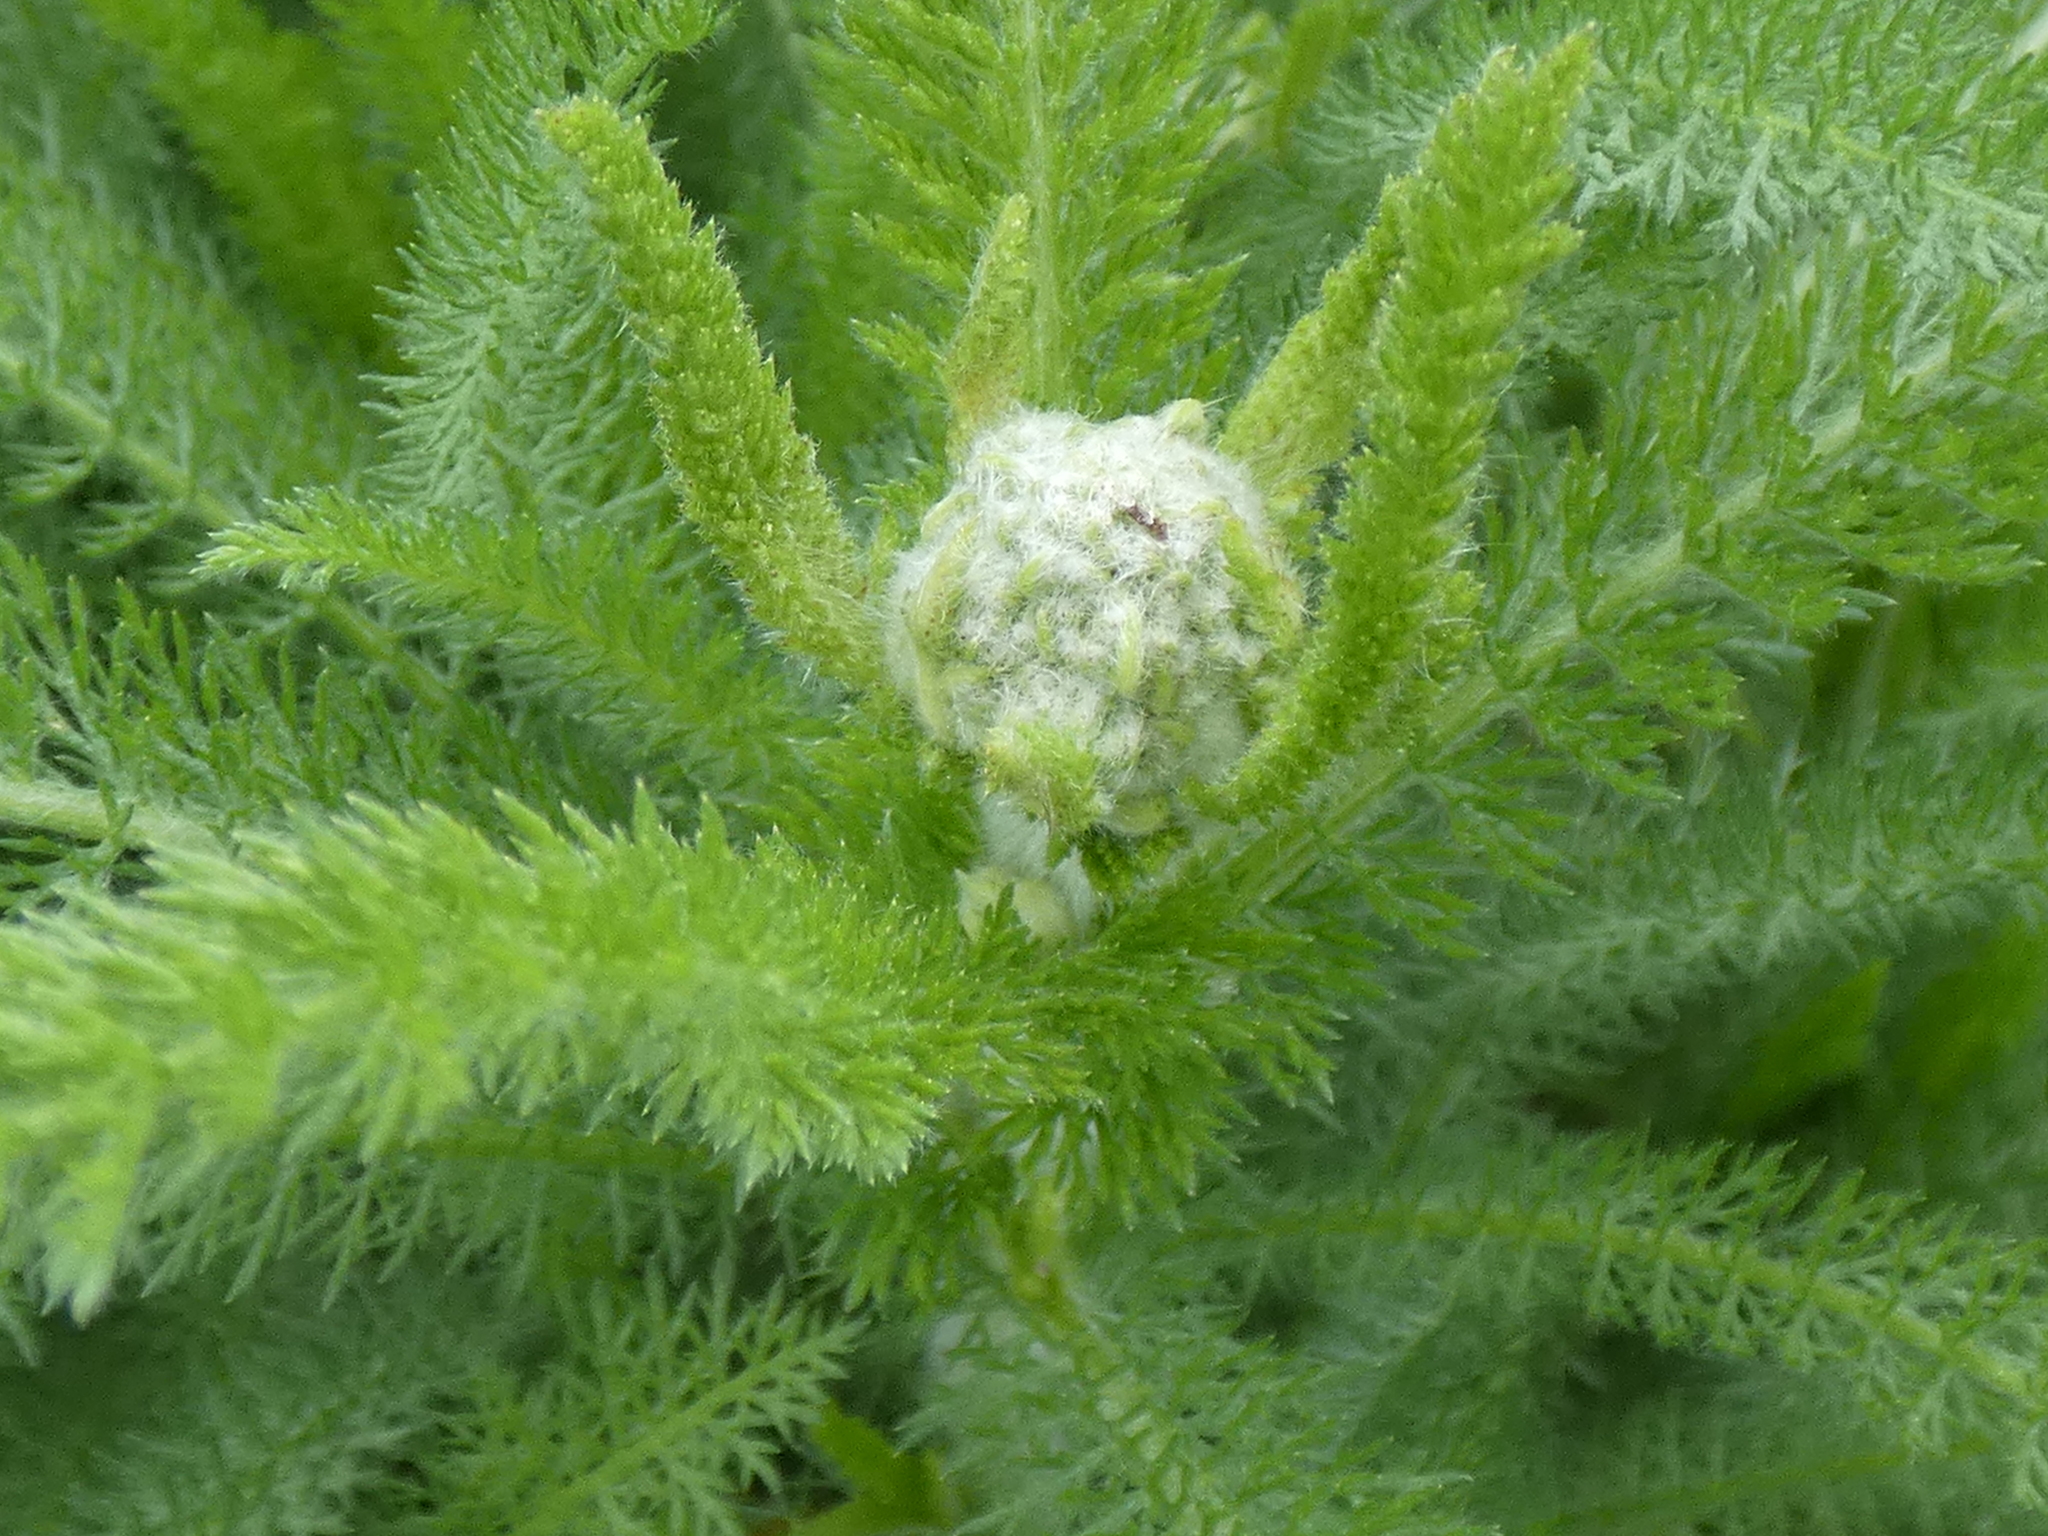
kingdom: Plantae
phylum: Tracheophyta
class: Magnoliopsida
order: Asterales
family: Asteraceae
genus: Achillea
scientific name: Achillea millefolium
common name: Yarrow
